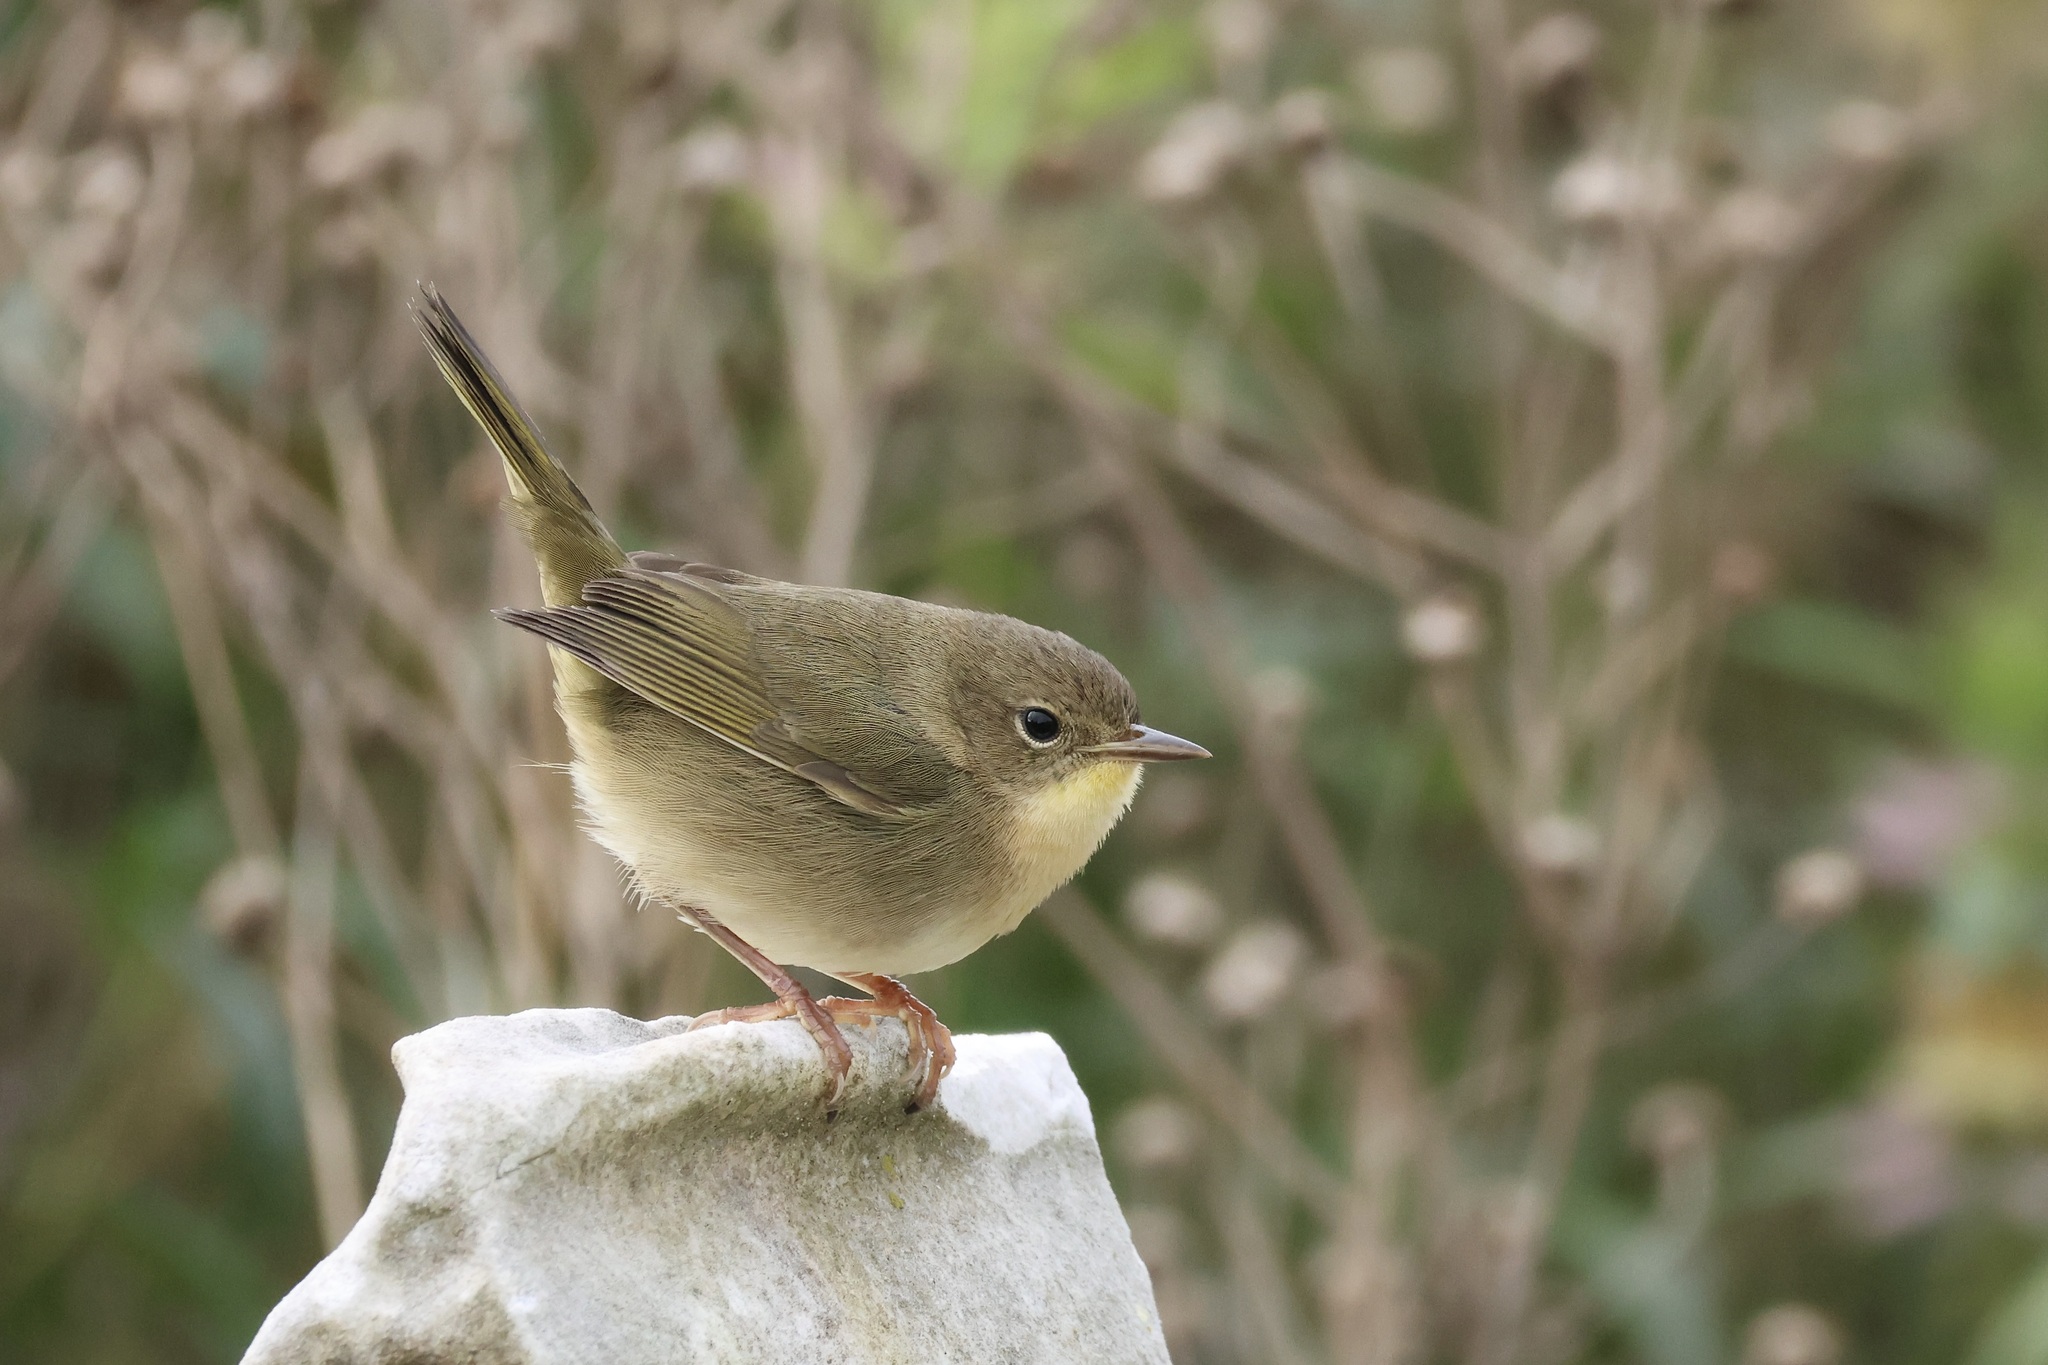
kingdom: Animalia
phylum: Chordata
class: Aves
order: Passeriformes
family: Parulidae
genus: Geothlypis
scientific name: Geothlypis trichas
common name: Common yellowthroat
